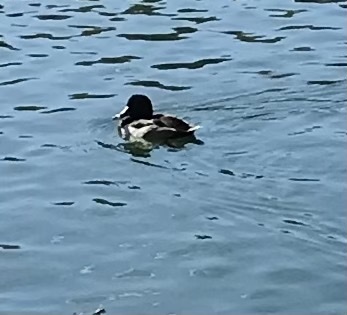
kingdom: Animalia
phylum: Chordata
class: Aves
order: Anseriformes
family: Anatidae
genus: Aythya
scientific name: Aythya collaris
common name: Ring-necked duck
